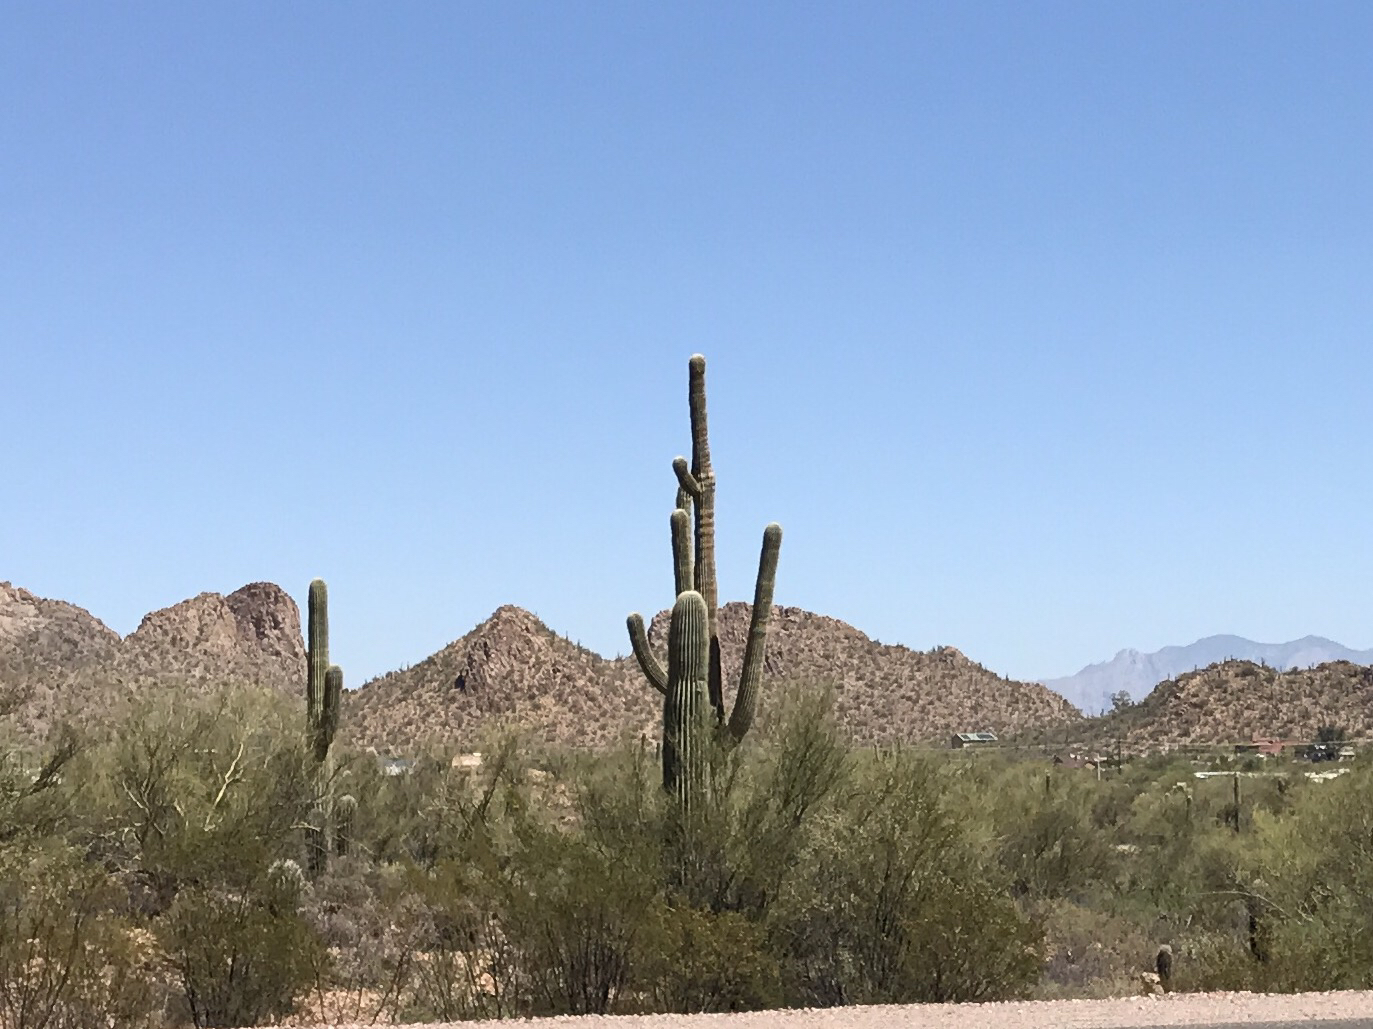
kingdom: Plantae
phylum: Tracheophyta
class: Magnoliopsida
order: Caryophyllales
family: Cactaceae
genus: Carnegiea
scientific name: Carnegiea gigantea
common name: Saguaro
